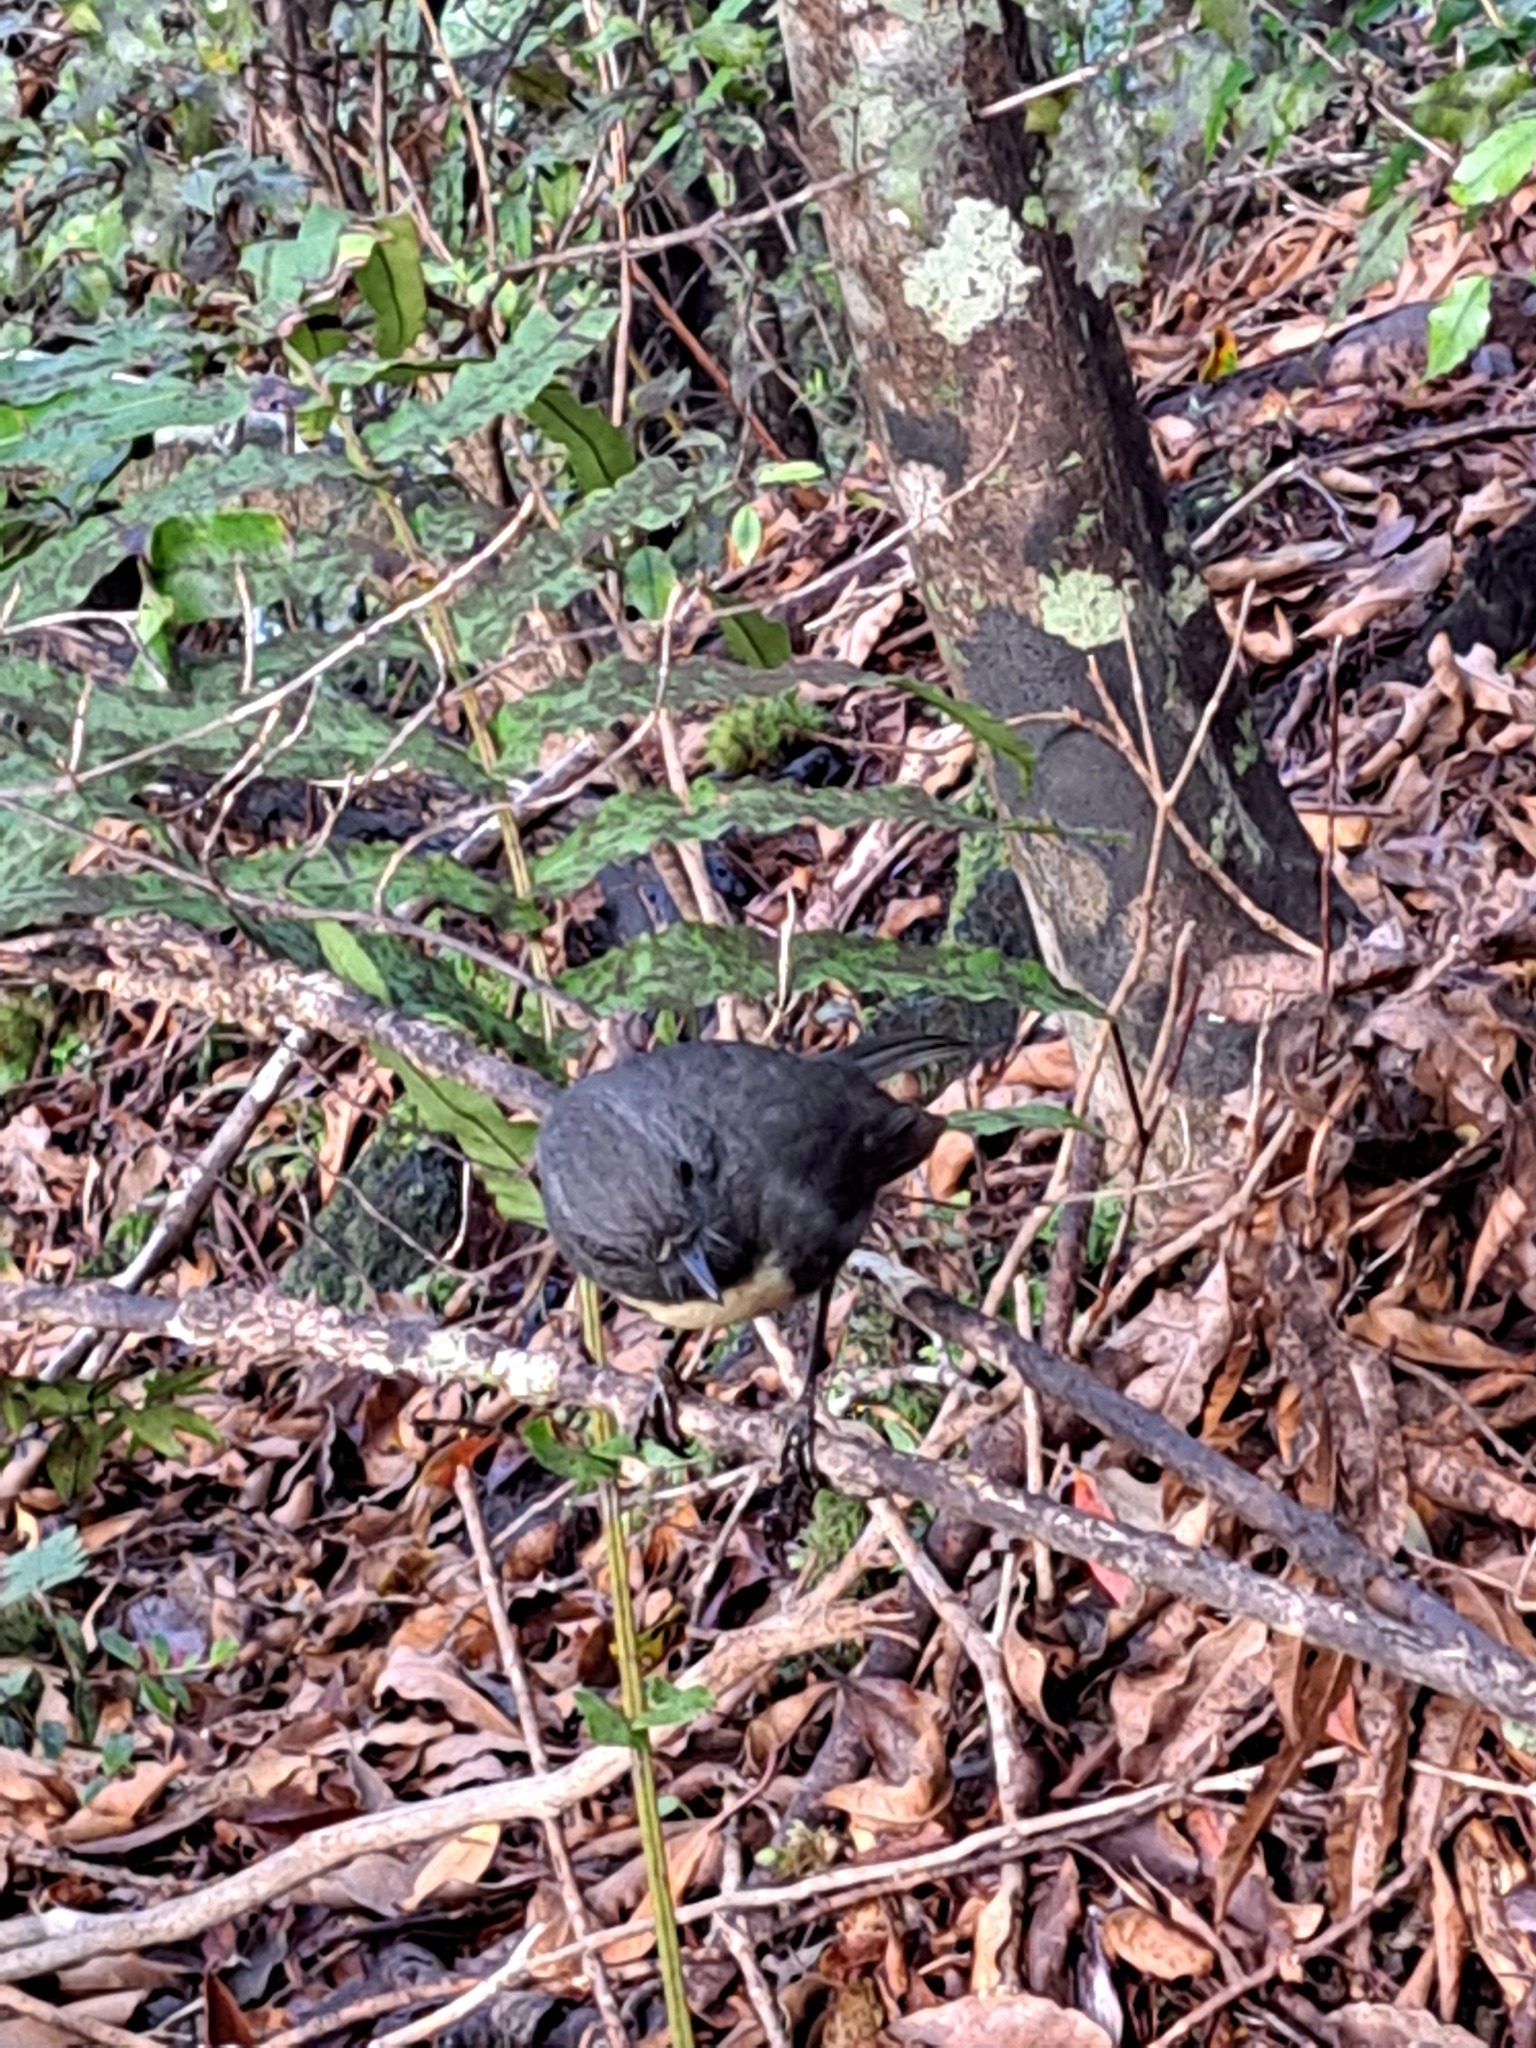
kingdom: Animalia
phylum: Chordata
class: Aves
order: Passeriformes
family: Petroicidae
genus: Petroica
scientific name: Petroica australis
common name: New zealand robin
